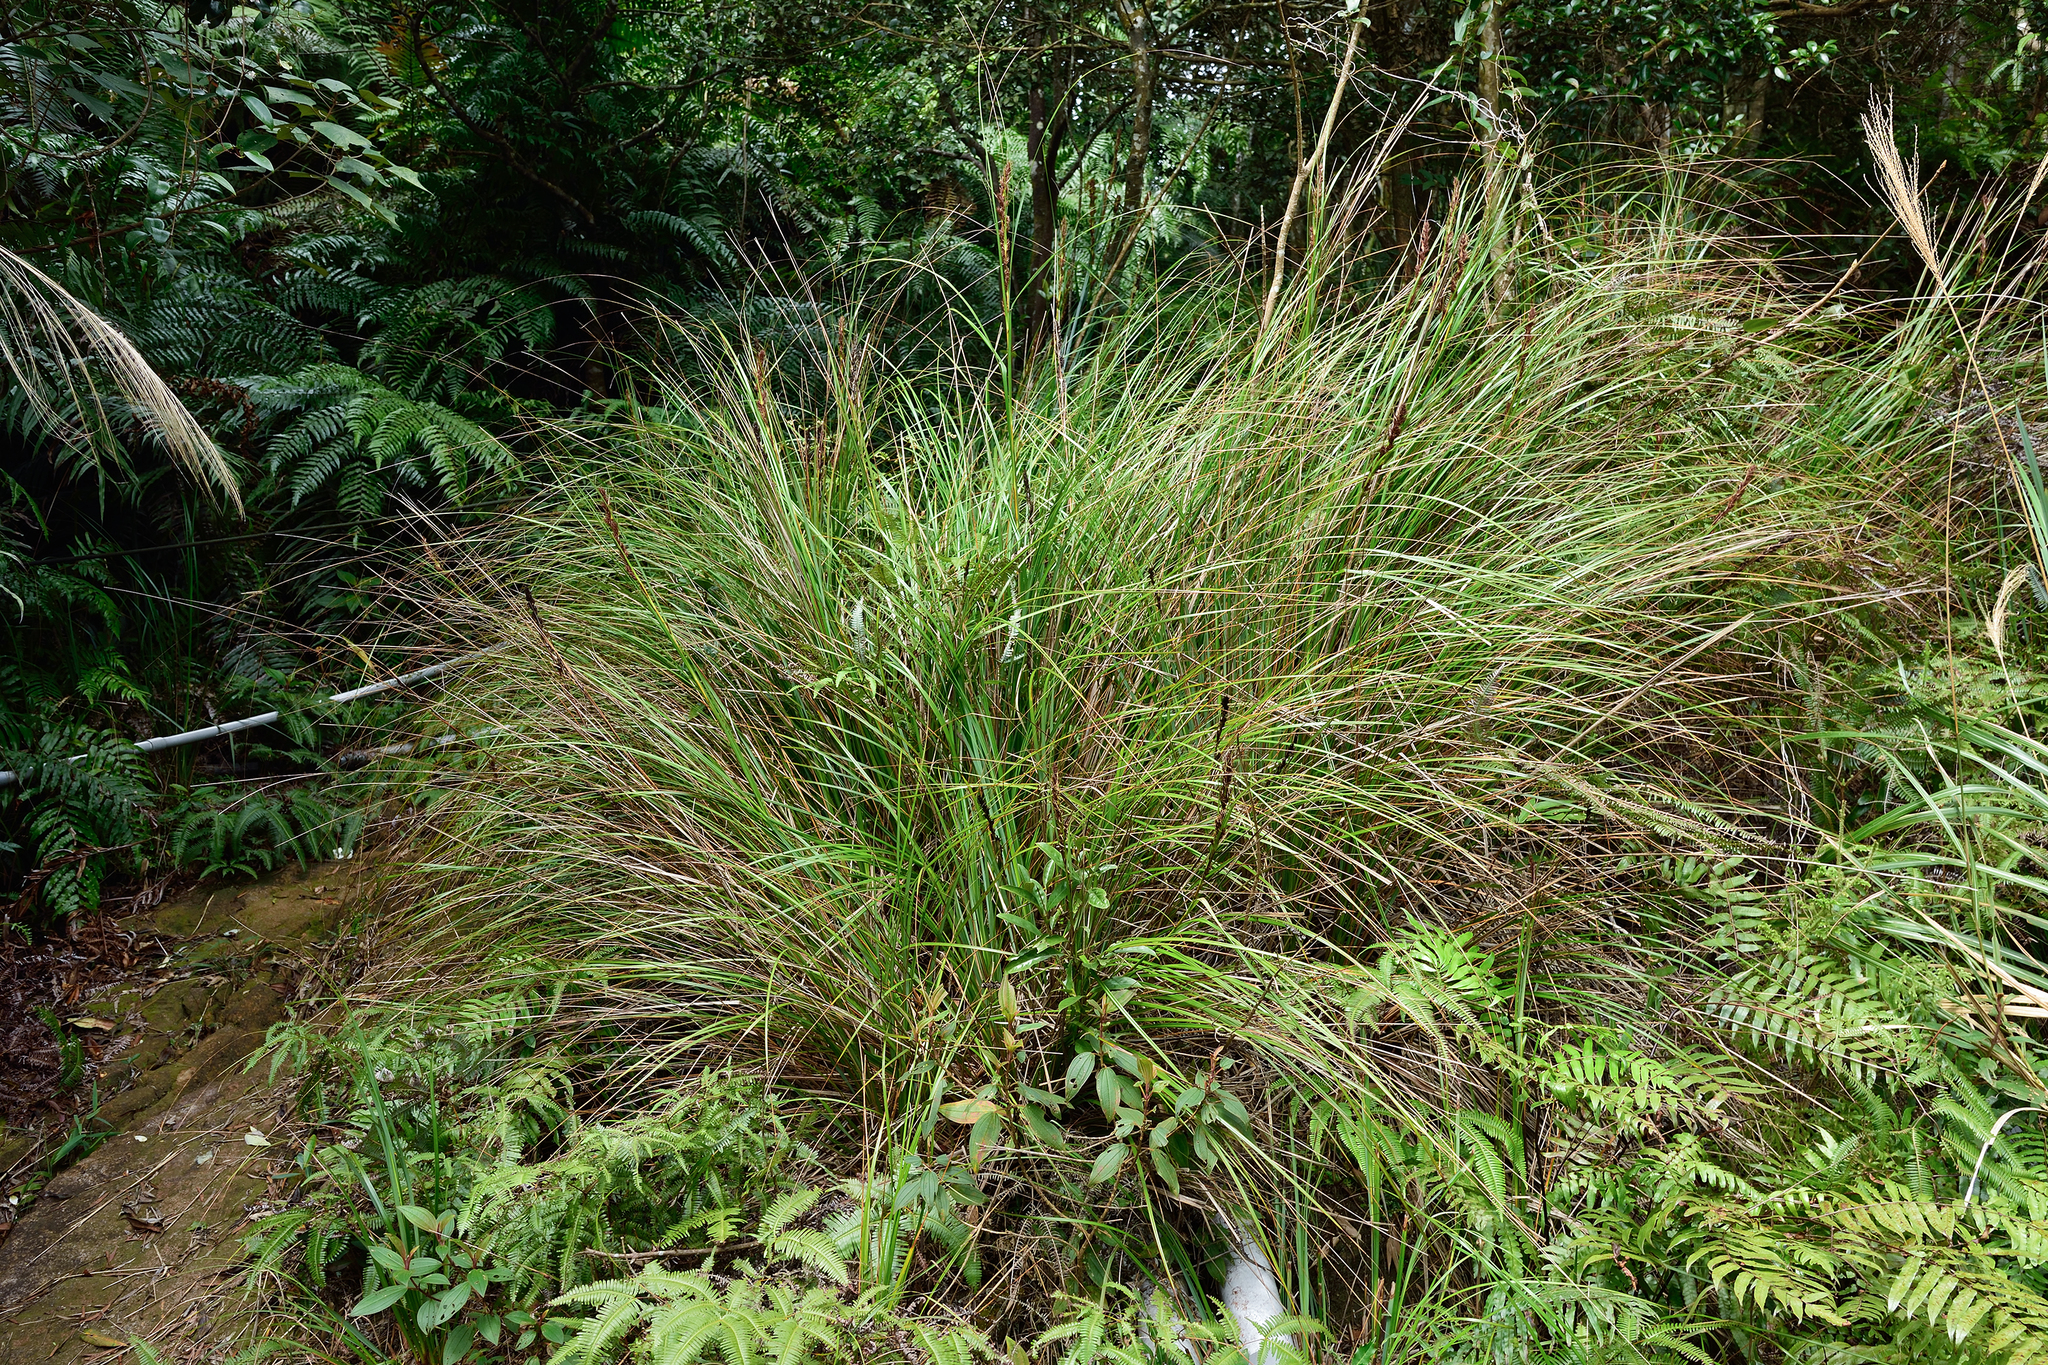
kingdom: Plantae
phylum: Tracheophyta
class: Liliopsida
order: Poales
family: Cyperaceae
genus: Gahnia
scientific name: Gahnia tristis
